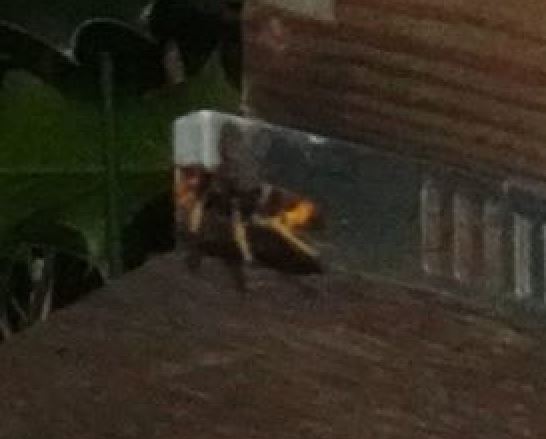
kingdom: Animalia
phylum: Arthropoda
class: Insecta
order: Hymenoptera
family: Vespidae
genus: Vespa
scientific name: Vespa velutina
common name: Asian hornet
